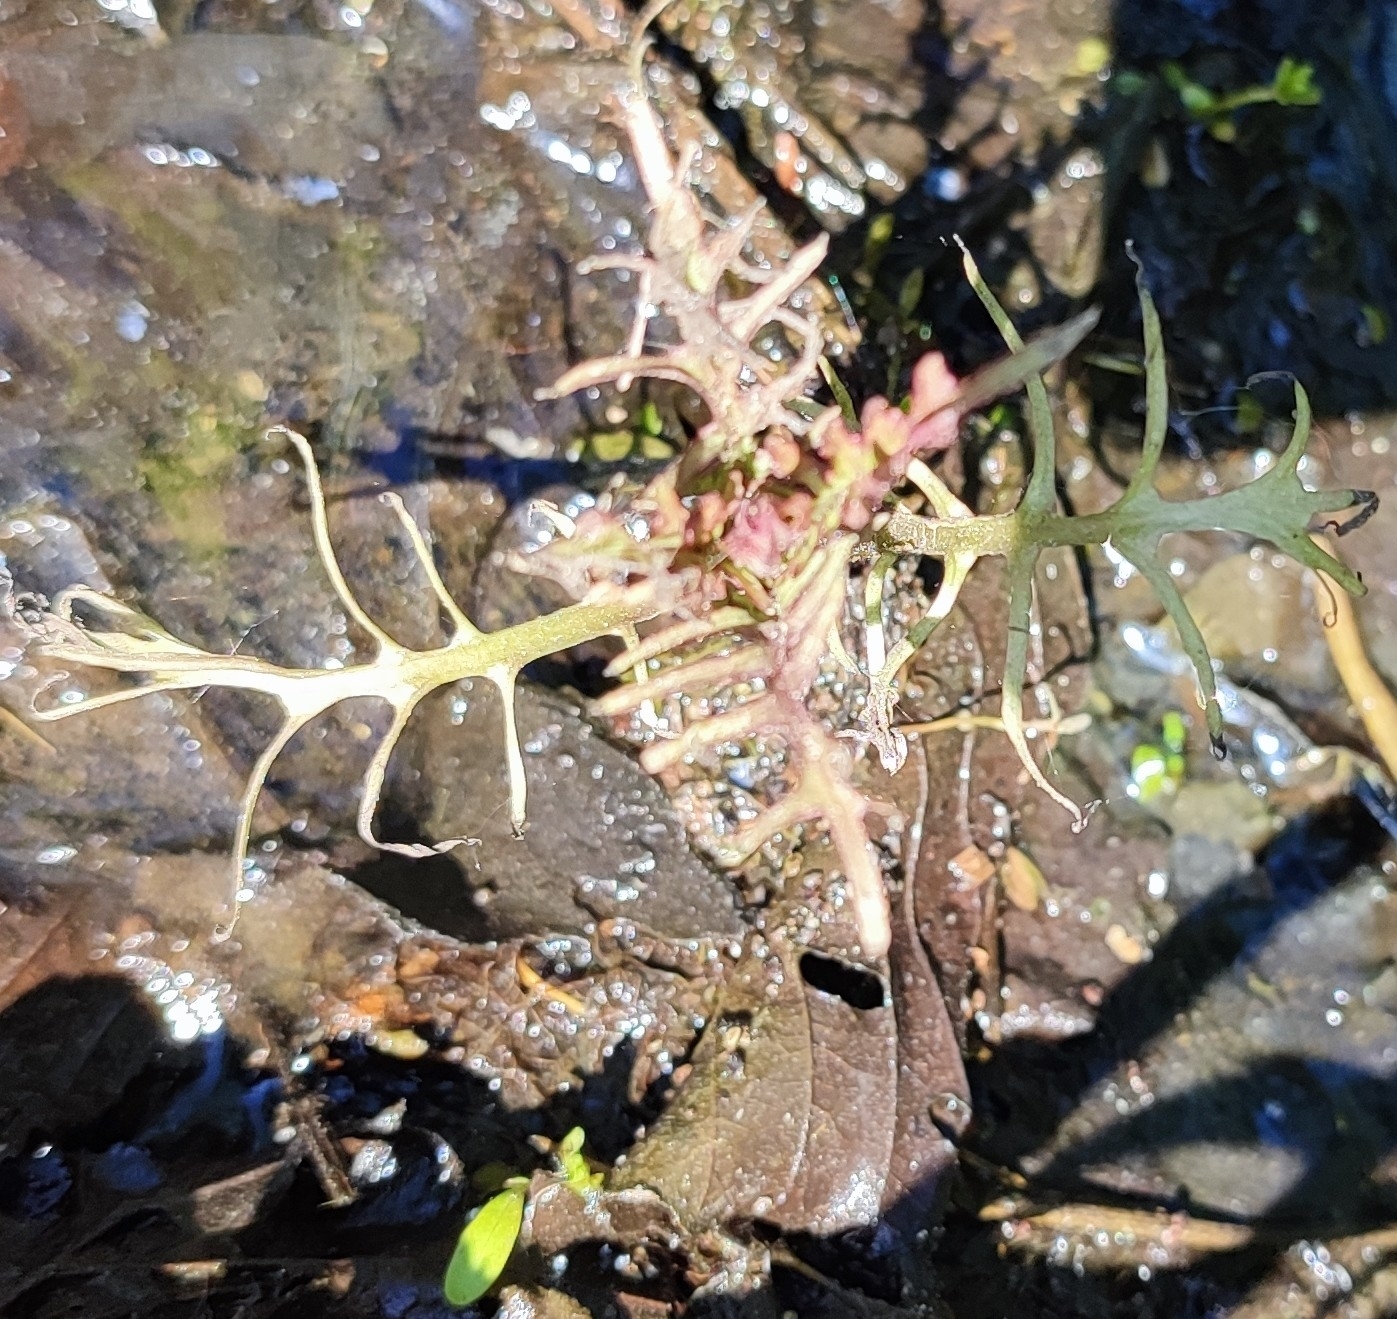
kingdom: Plantae
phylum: Tracheophyta
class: Magnoliopsida
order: Brassicales
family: Brassicaceae
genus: Rorippa
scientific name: Rorippa amphibia
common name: Great yellow-cress
